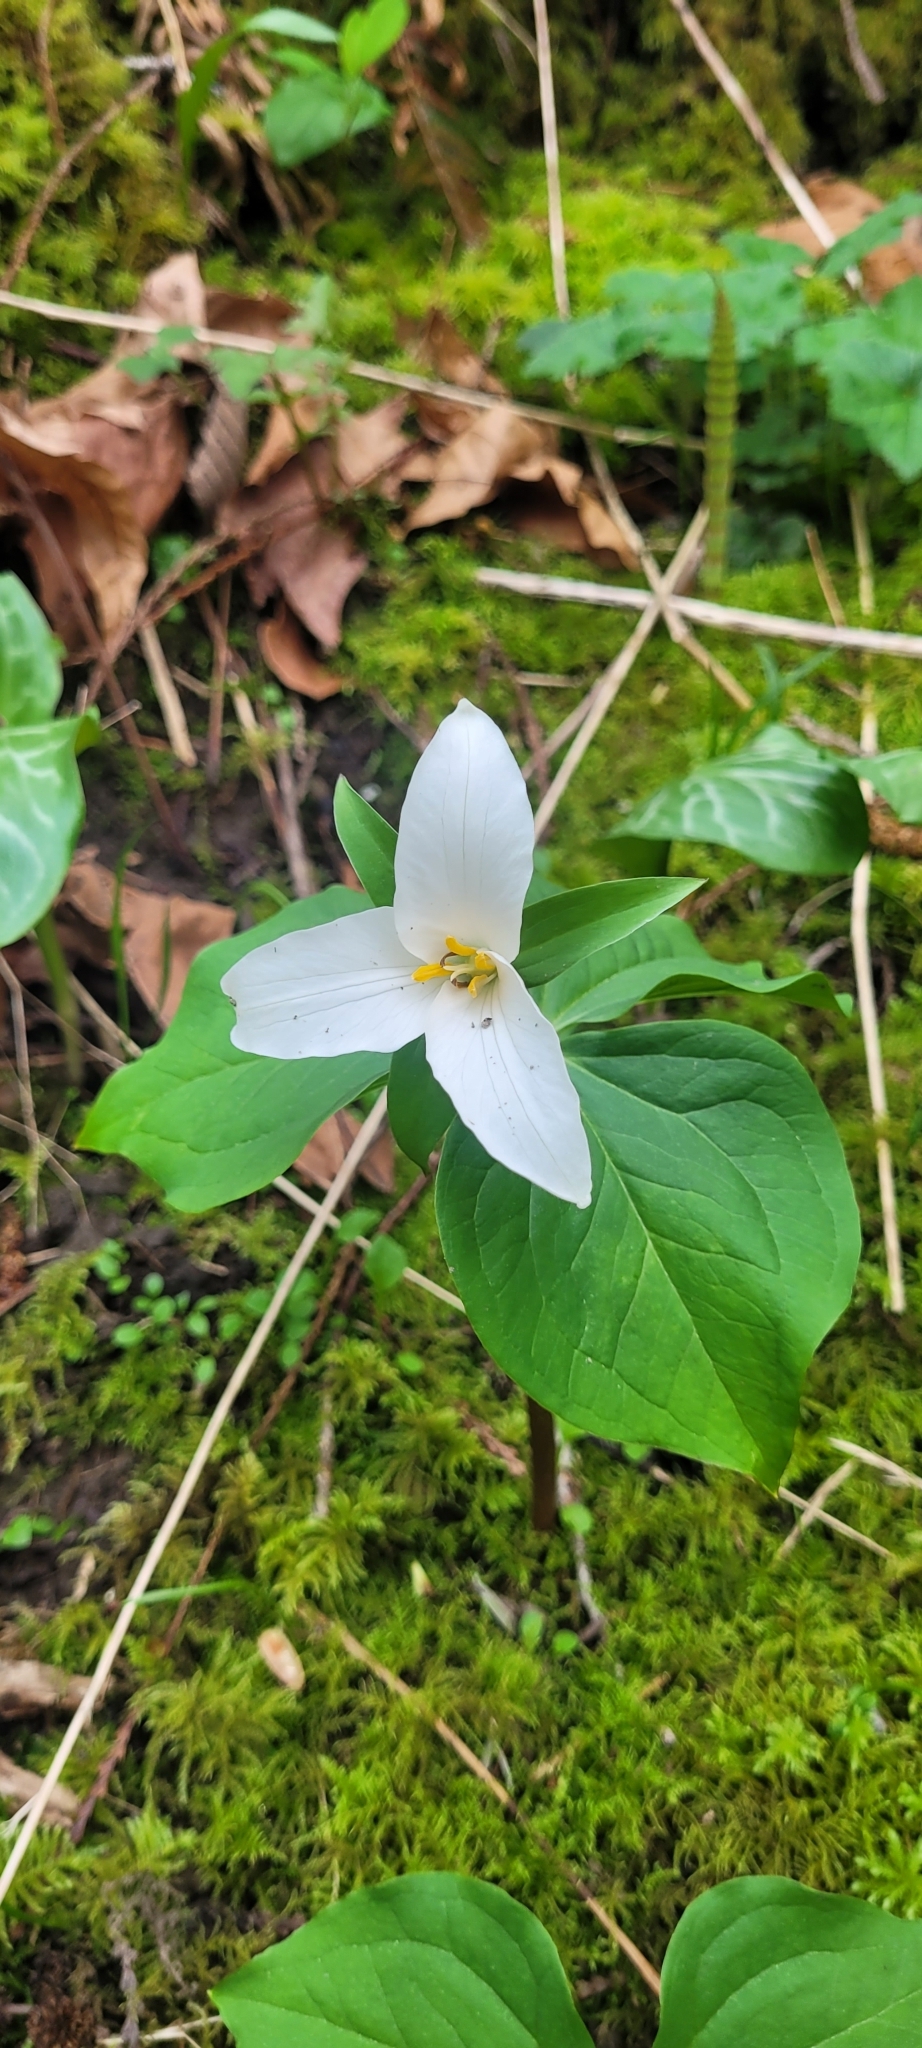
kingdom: Plantae
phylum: Tracheophyta
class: Liliopsida
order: Liliales
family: Melanthiaceae
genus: Trillium
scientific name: Trillium ovatum
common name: Pacific trillium
